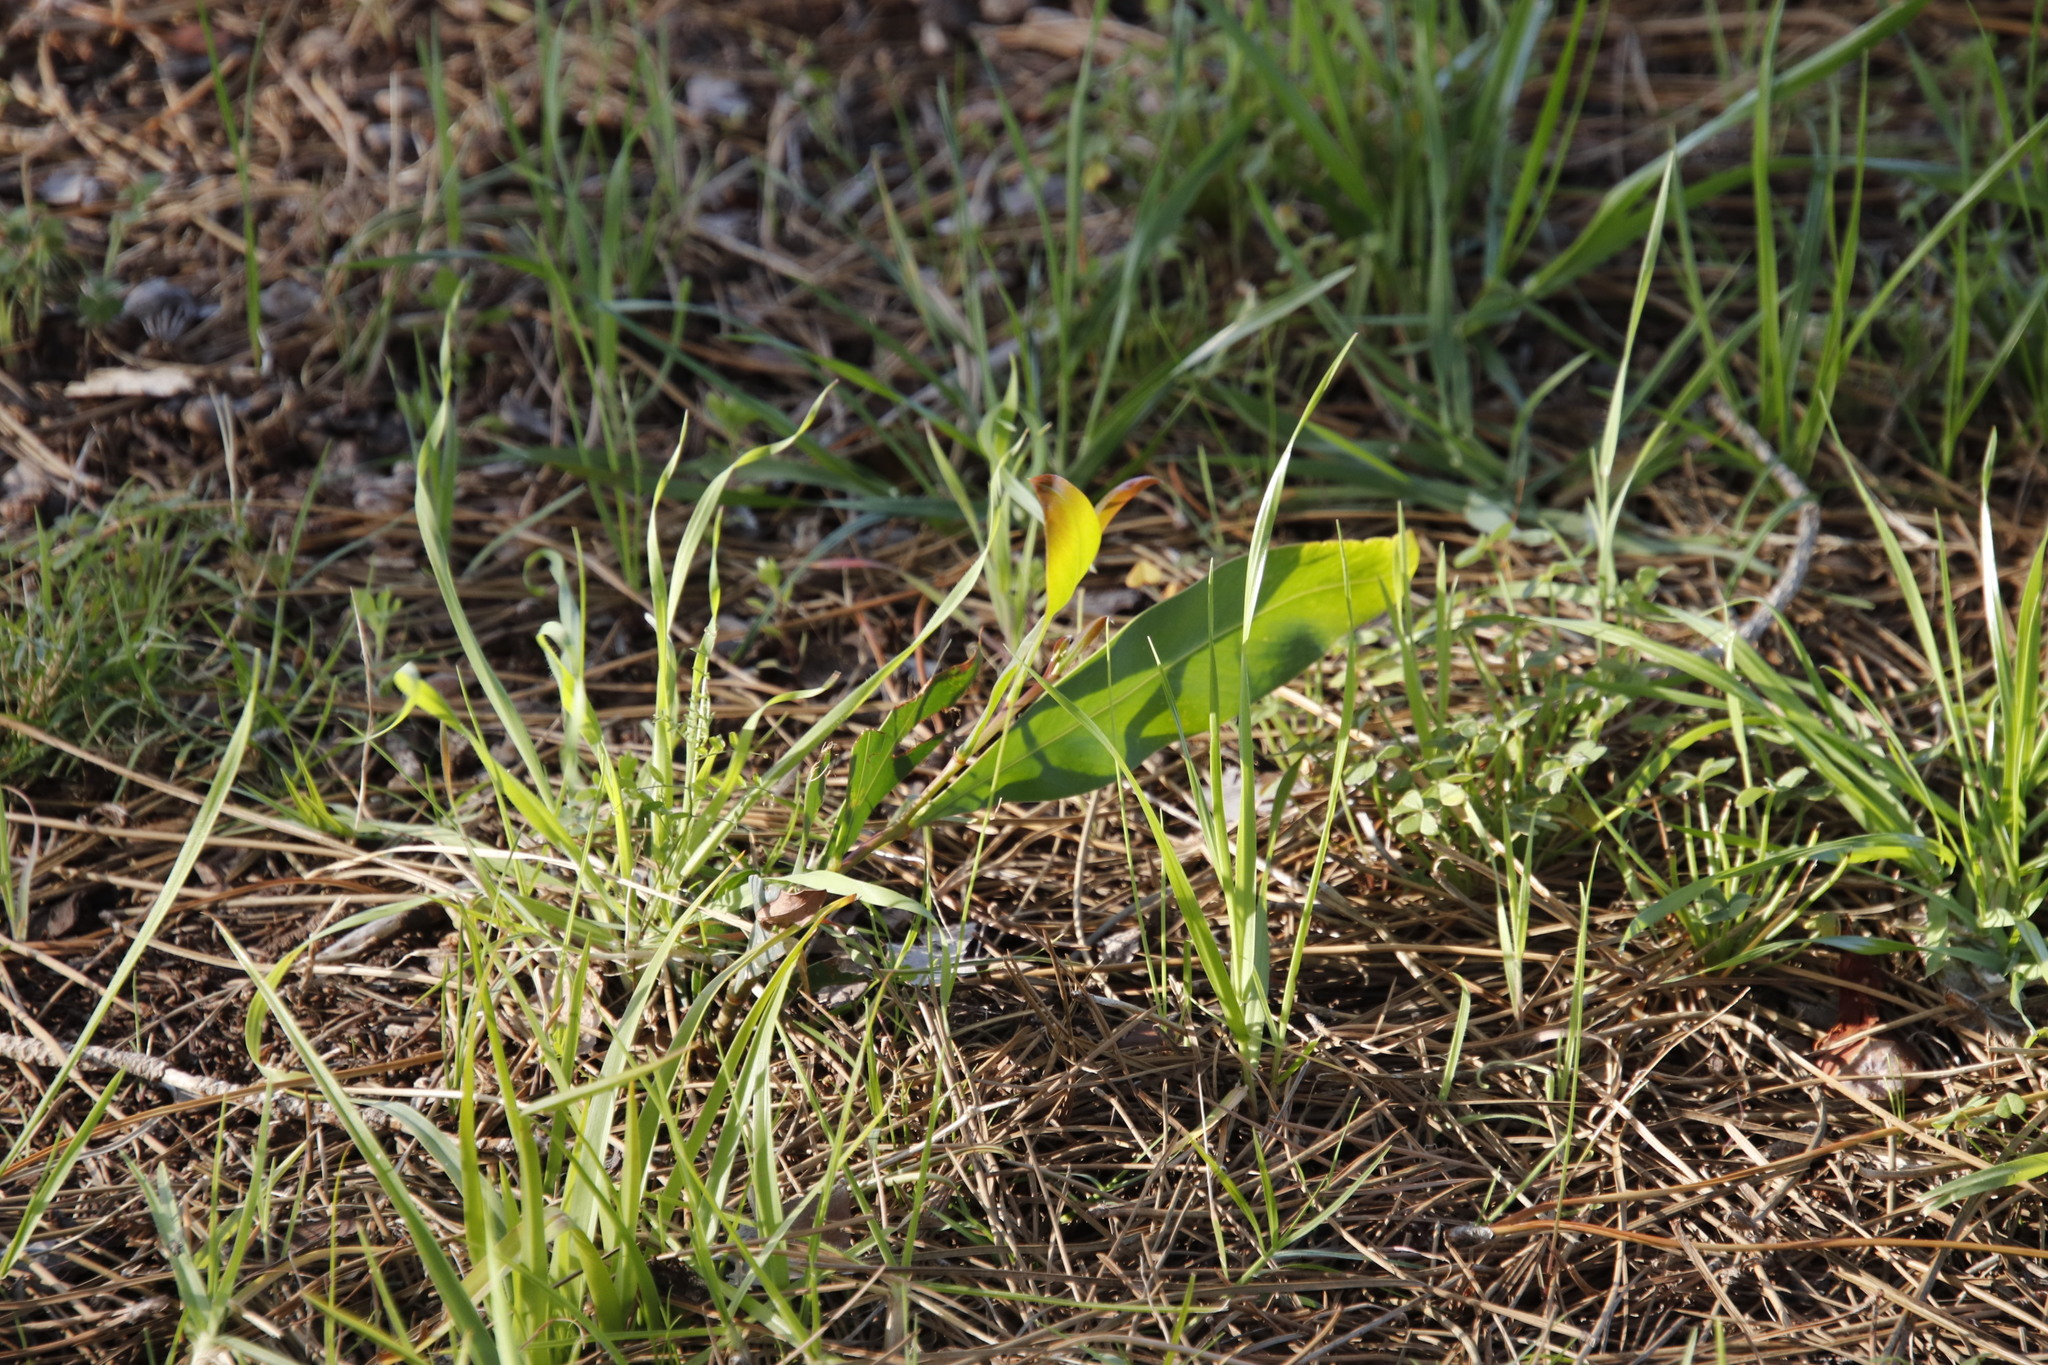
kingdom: Plantae
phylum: Tracheophyta
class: Magnoliopsida
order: Fabales
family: Fabaceae
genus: Acacia
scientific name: Acacia saligna
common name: Orange wattle
